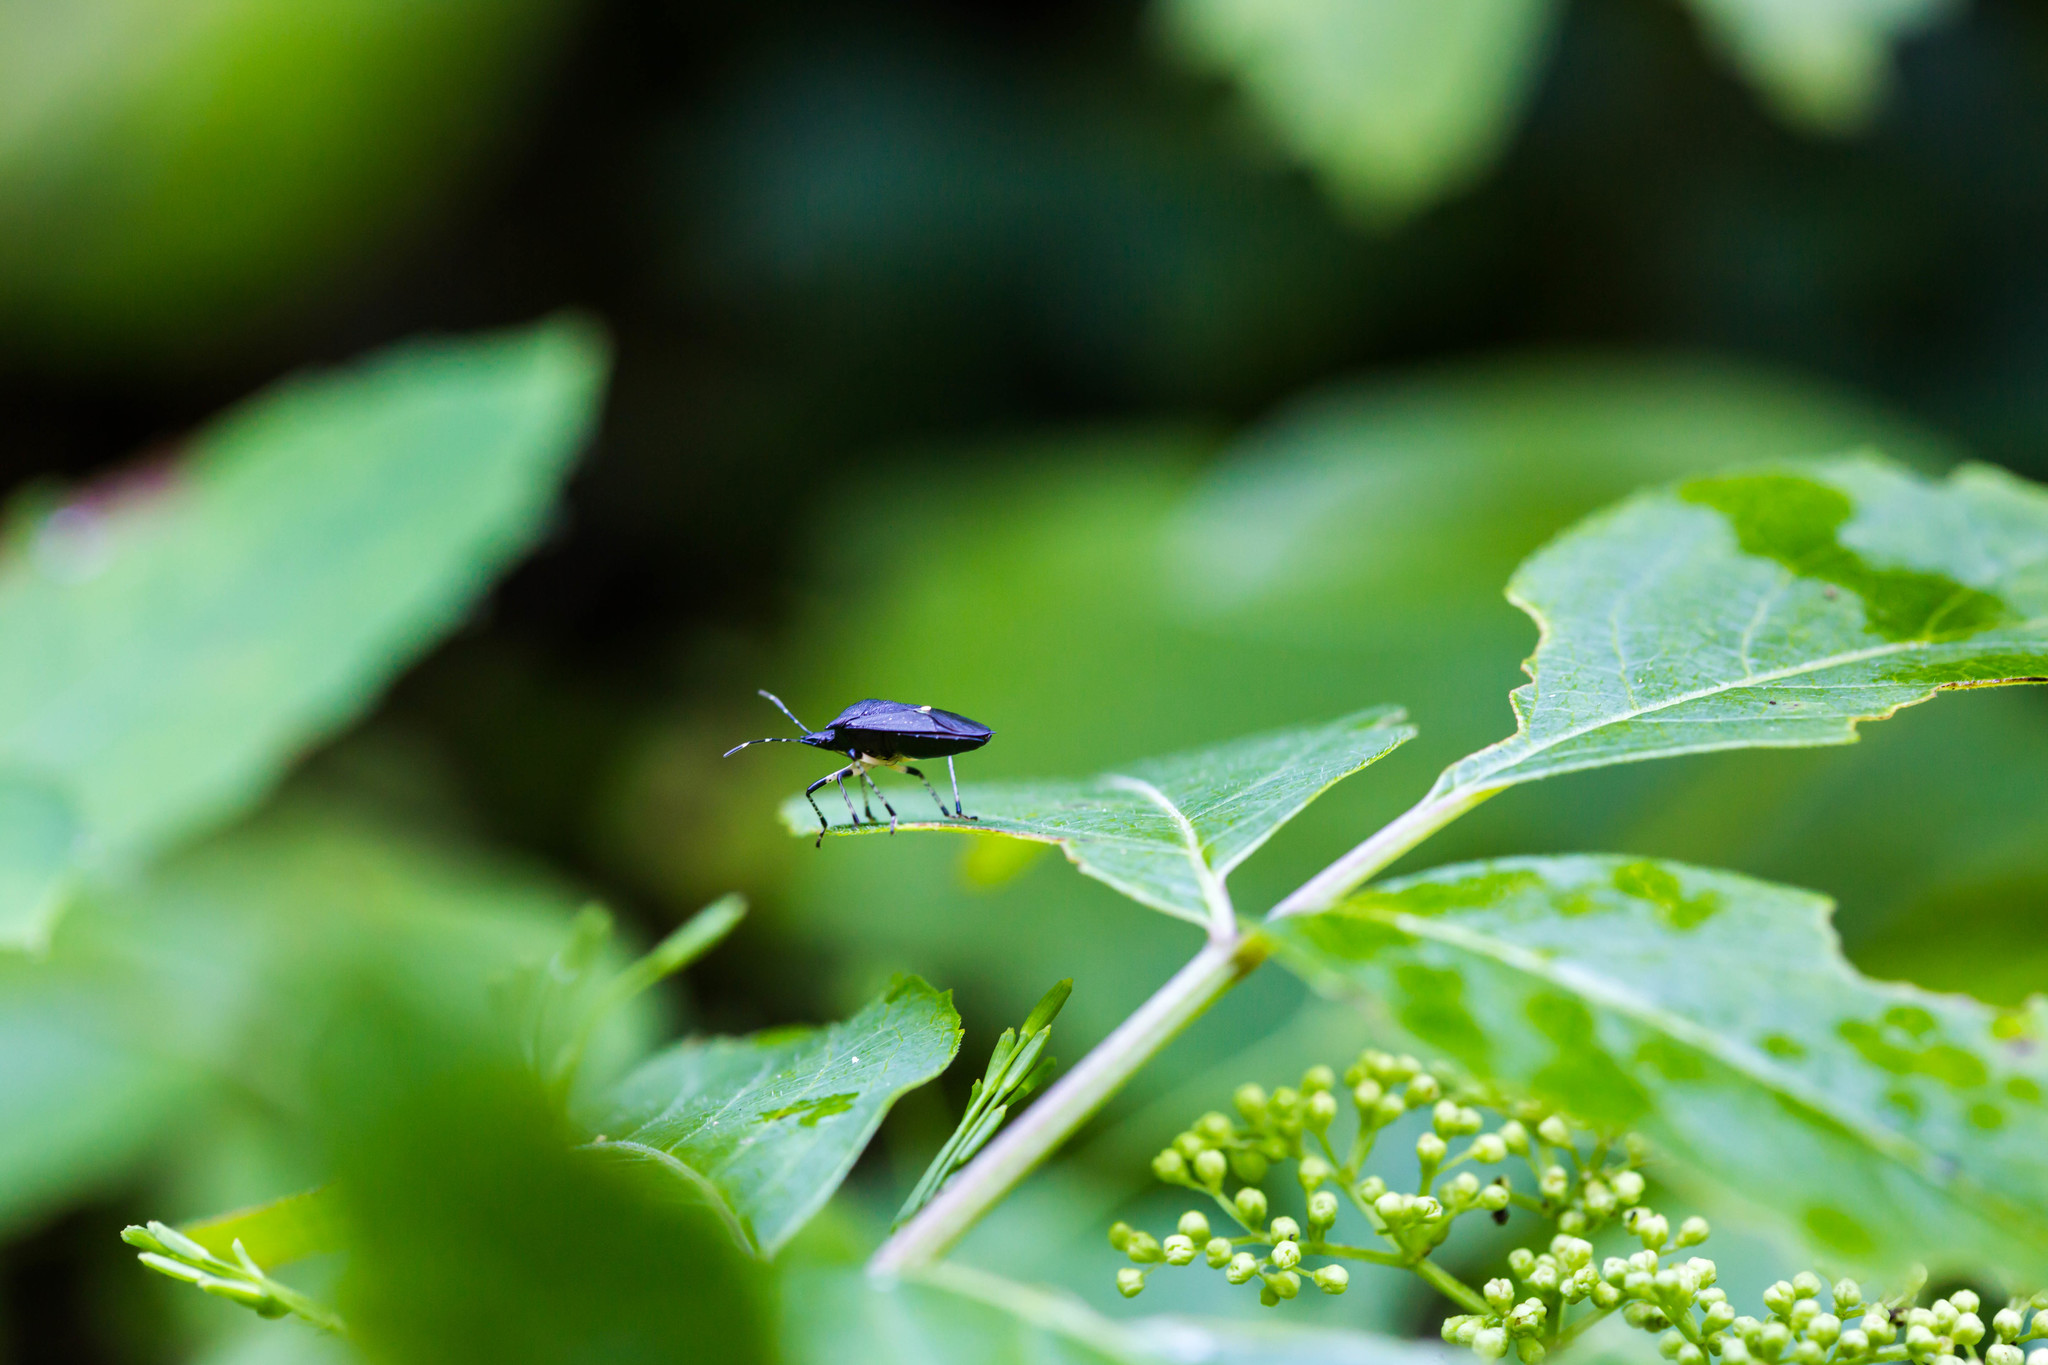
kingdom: Animalia
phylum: Arthropoda
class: Insecta
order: Hemiptera
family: Pentatomidae
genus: Proxys
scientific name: Proxys punctulatus
